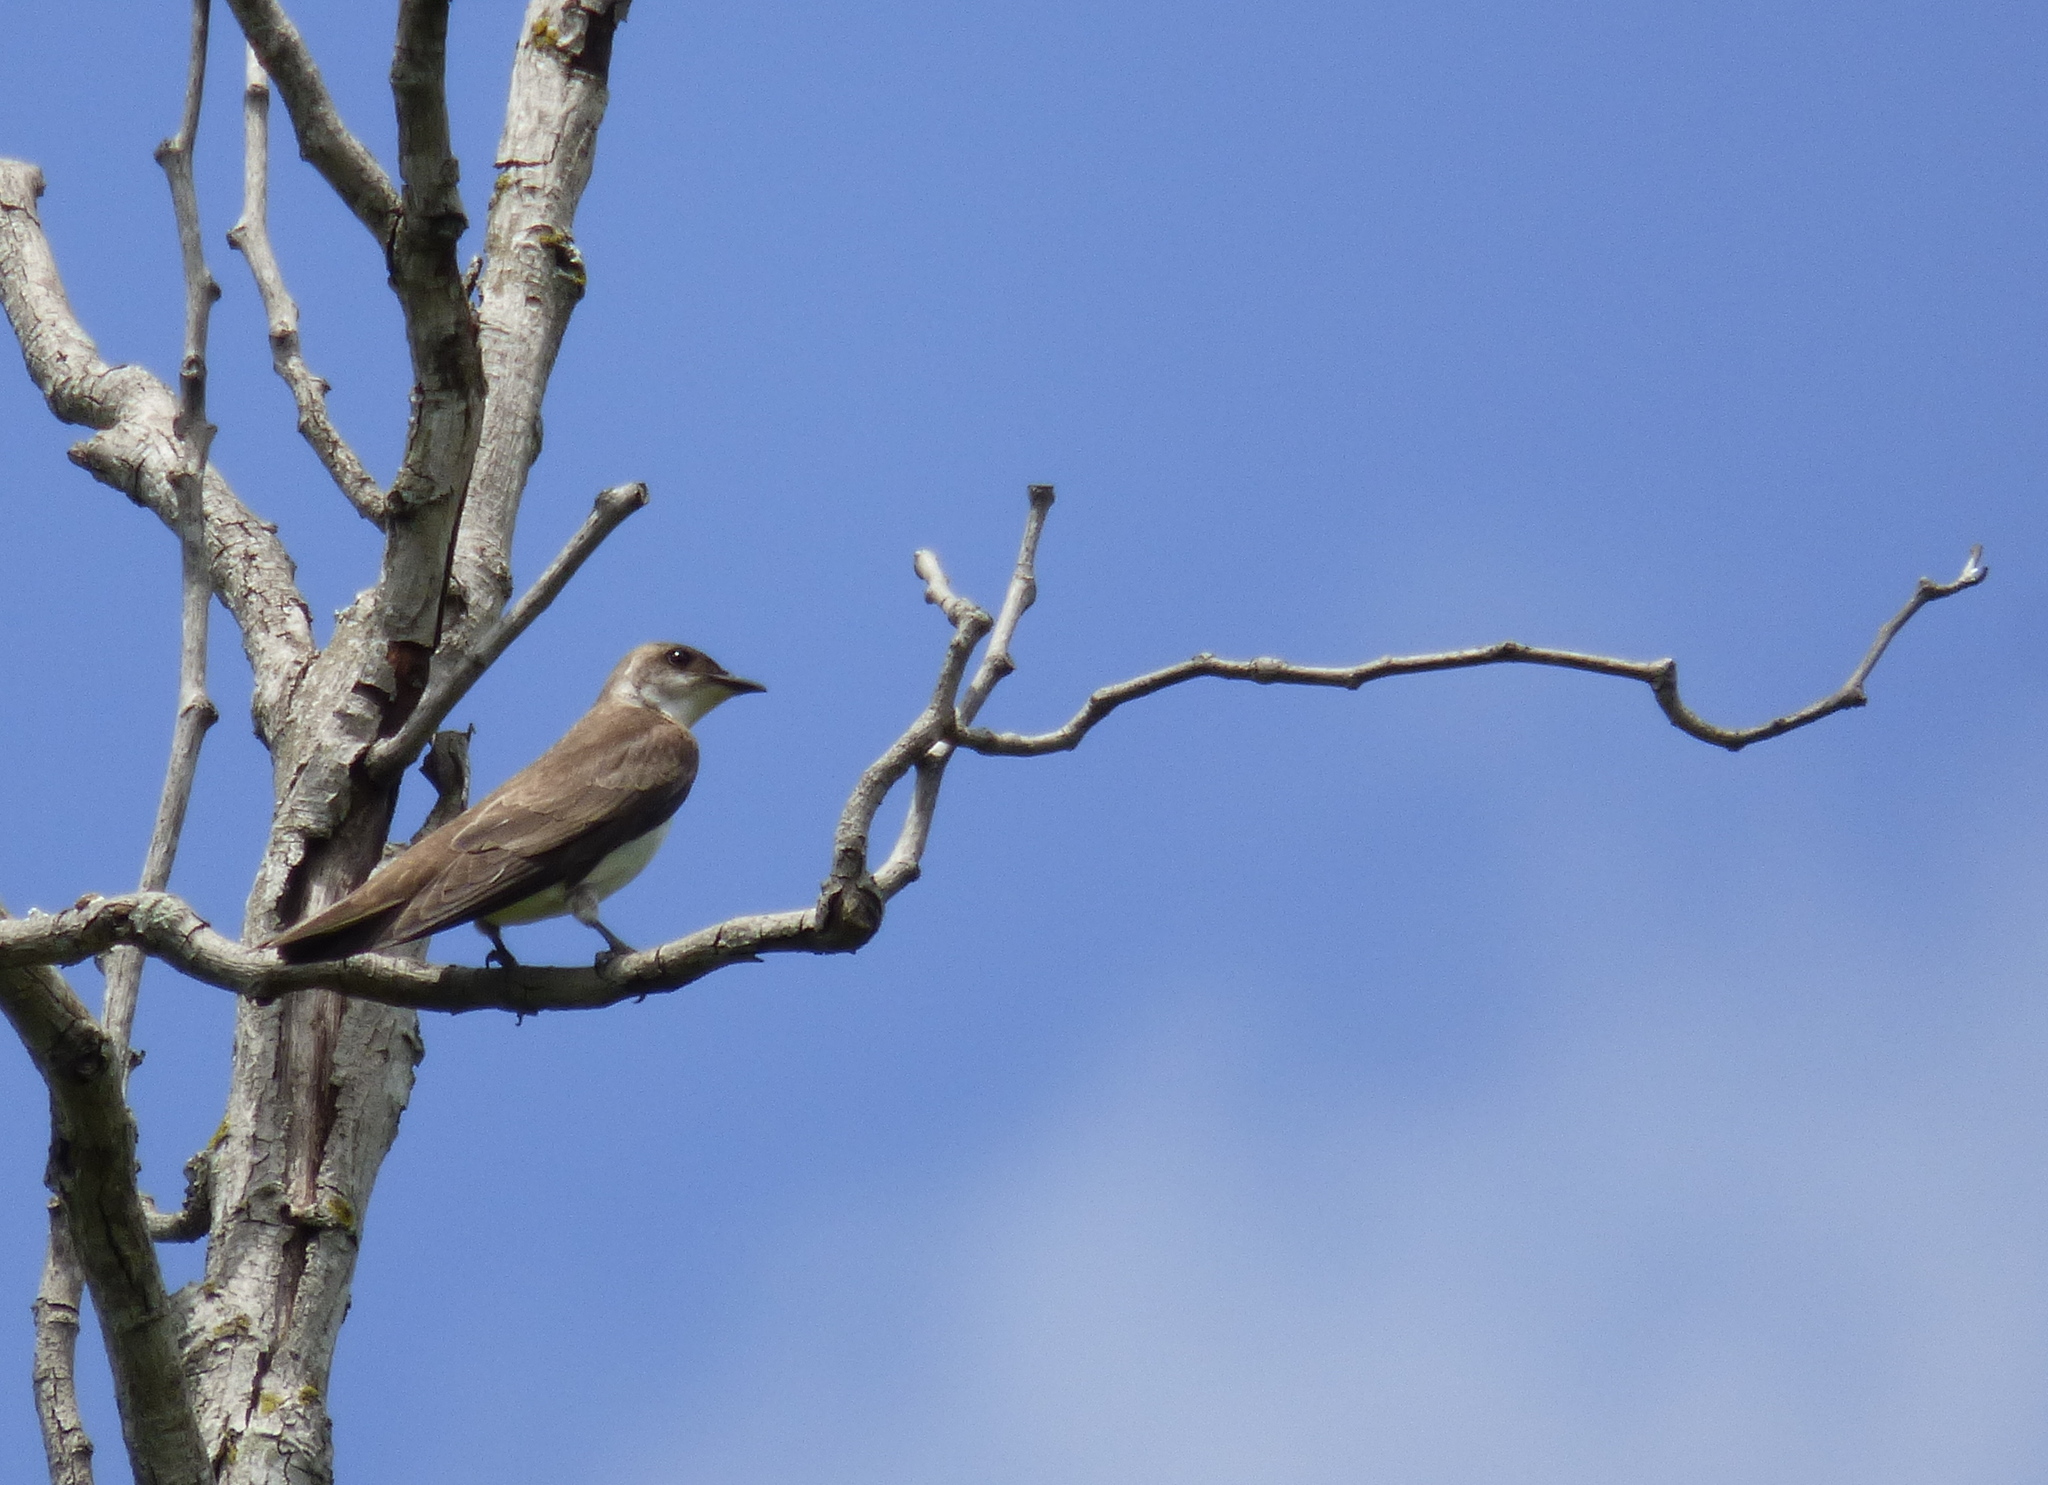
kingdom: Animalia
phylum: Chordata
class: Aves
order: Passeriformes
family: Hirundinidae
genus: Progne
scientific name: Progne tapera
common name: Brown-chested martin
